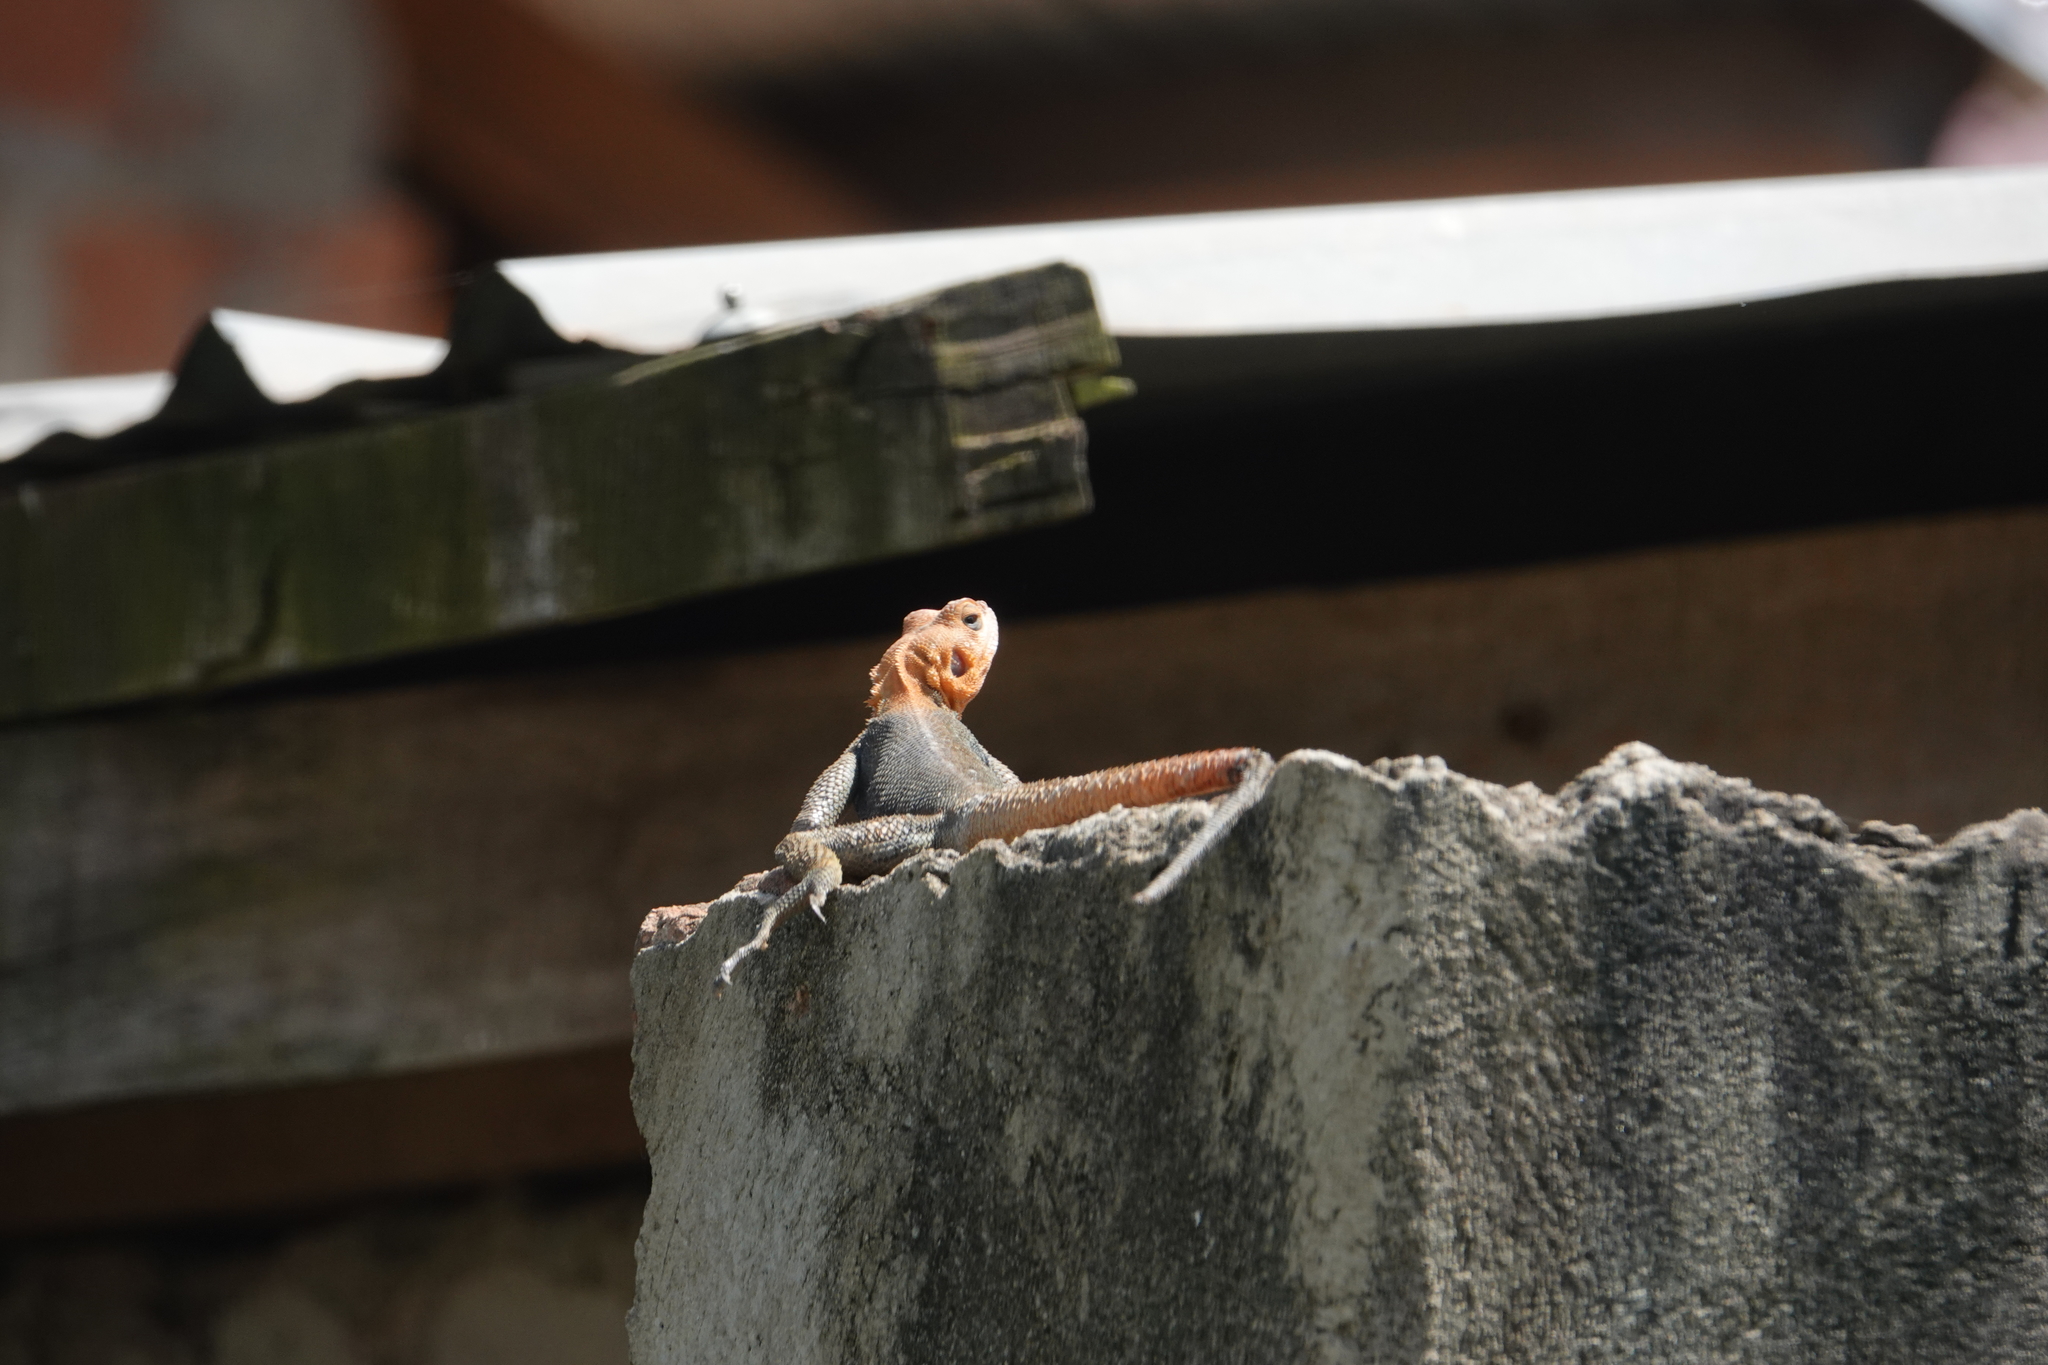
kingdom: Animalia
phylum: Chordata
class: Squamata
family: Agamidae
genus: Agama
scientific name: Agama finchi
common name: Finch’s agama
